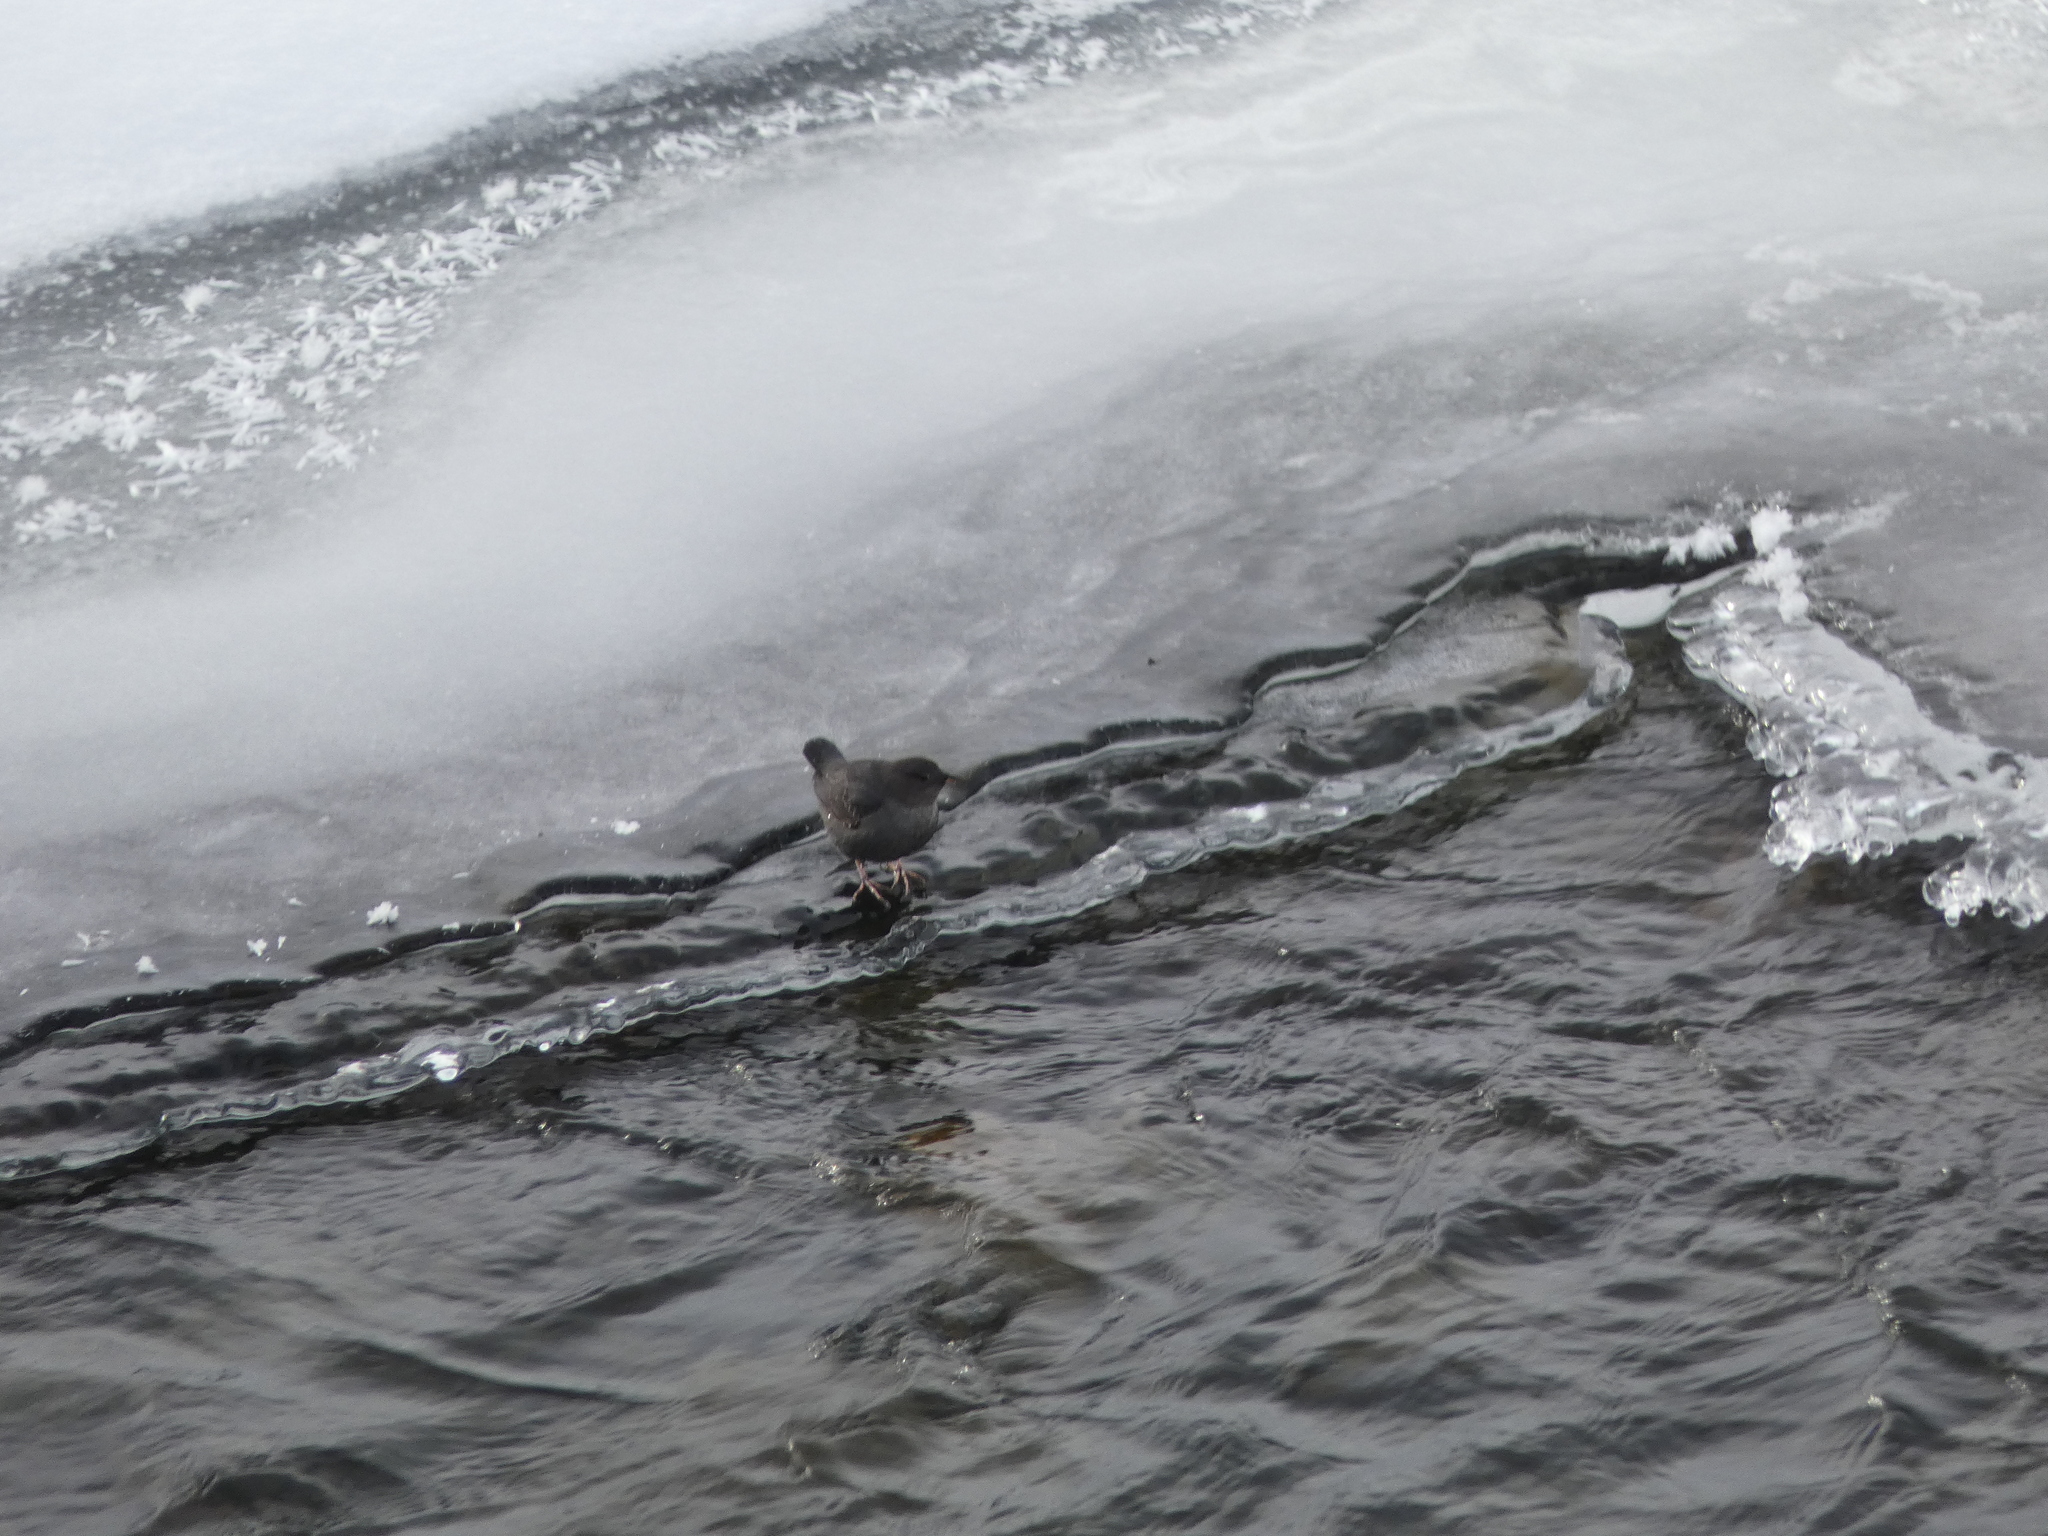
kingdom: Animalia
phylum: Chordata
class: Aves
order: Passeriformes
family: Cinclidae
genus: Cinclus
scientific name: Cinclus mexicanus
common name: American dipper
